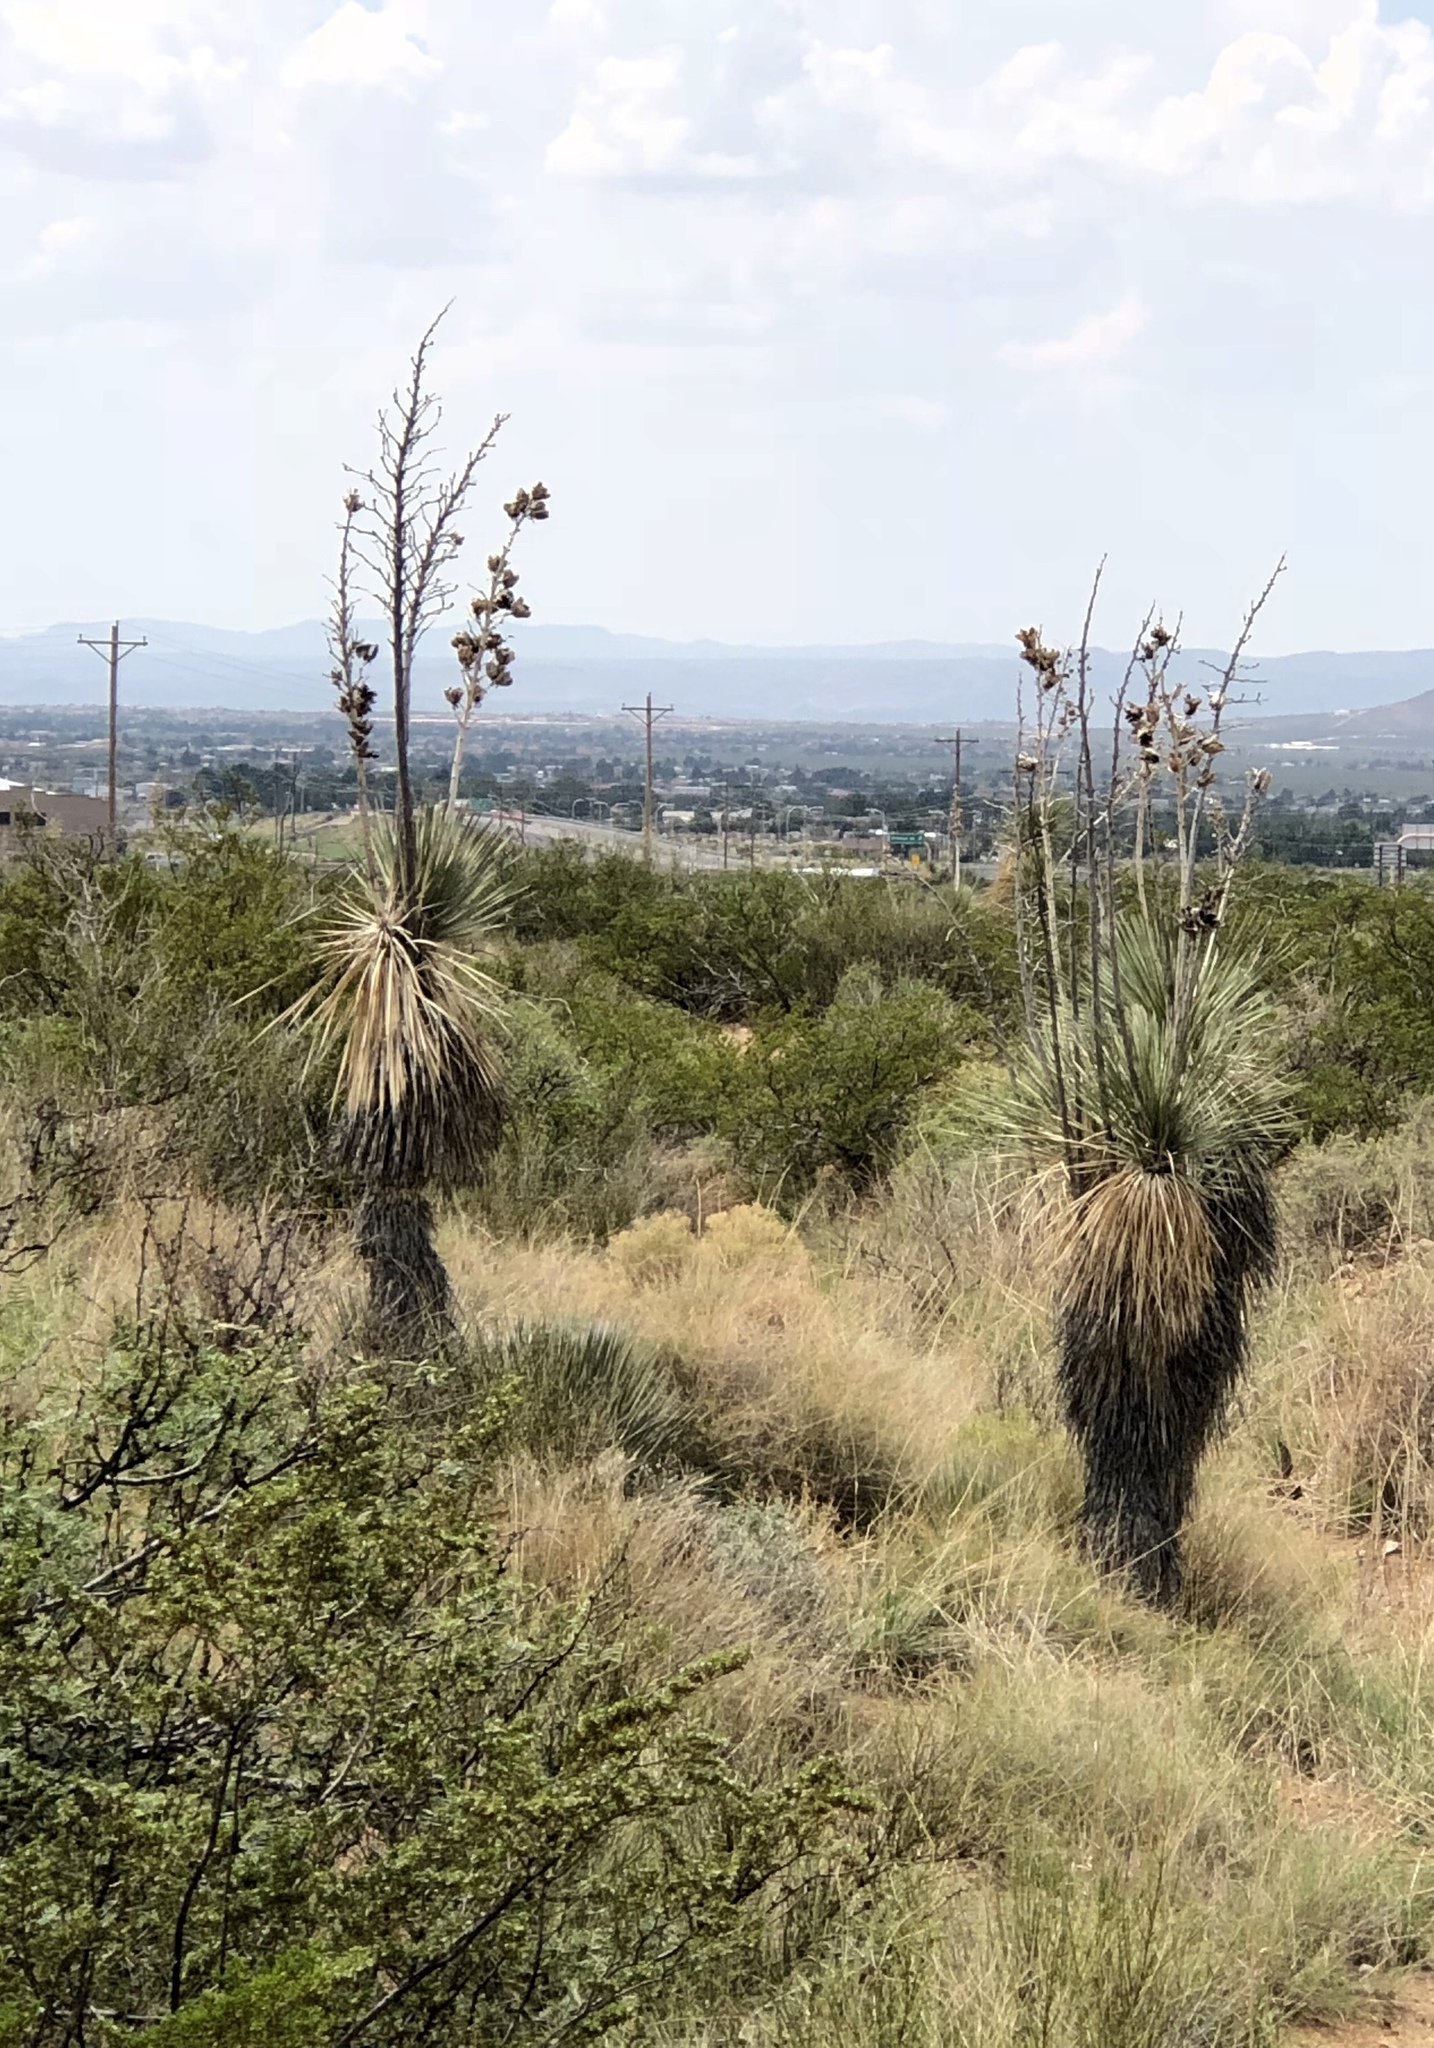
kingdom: Plantae
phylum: Tracheophyta
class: Liliopsida
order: Asparagales
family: Asparagaceae
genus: Yucca
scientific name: Yucca elata
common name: Palmella
